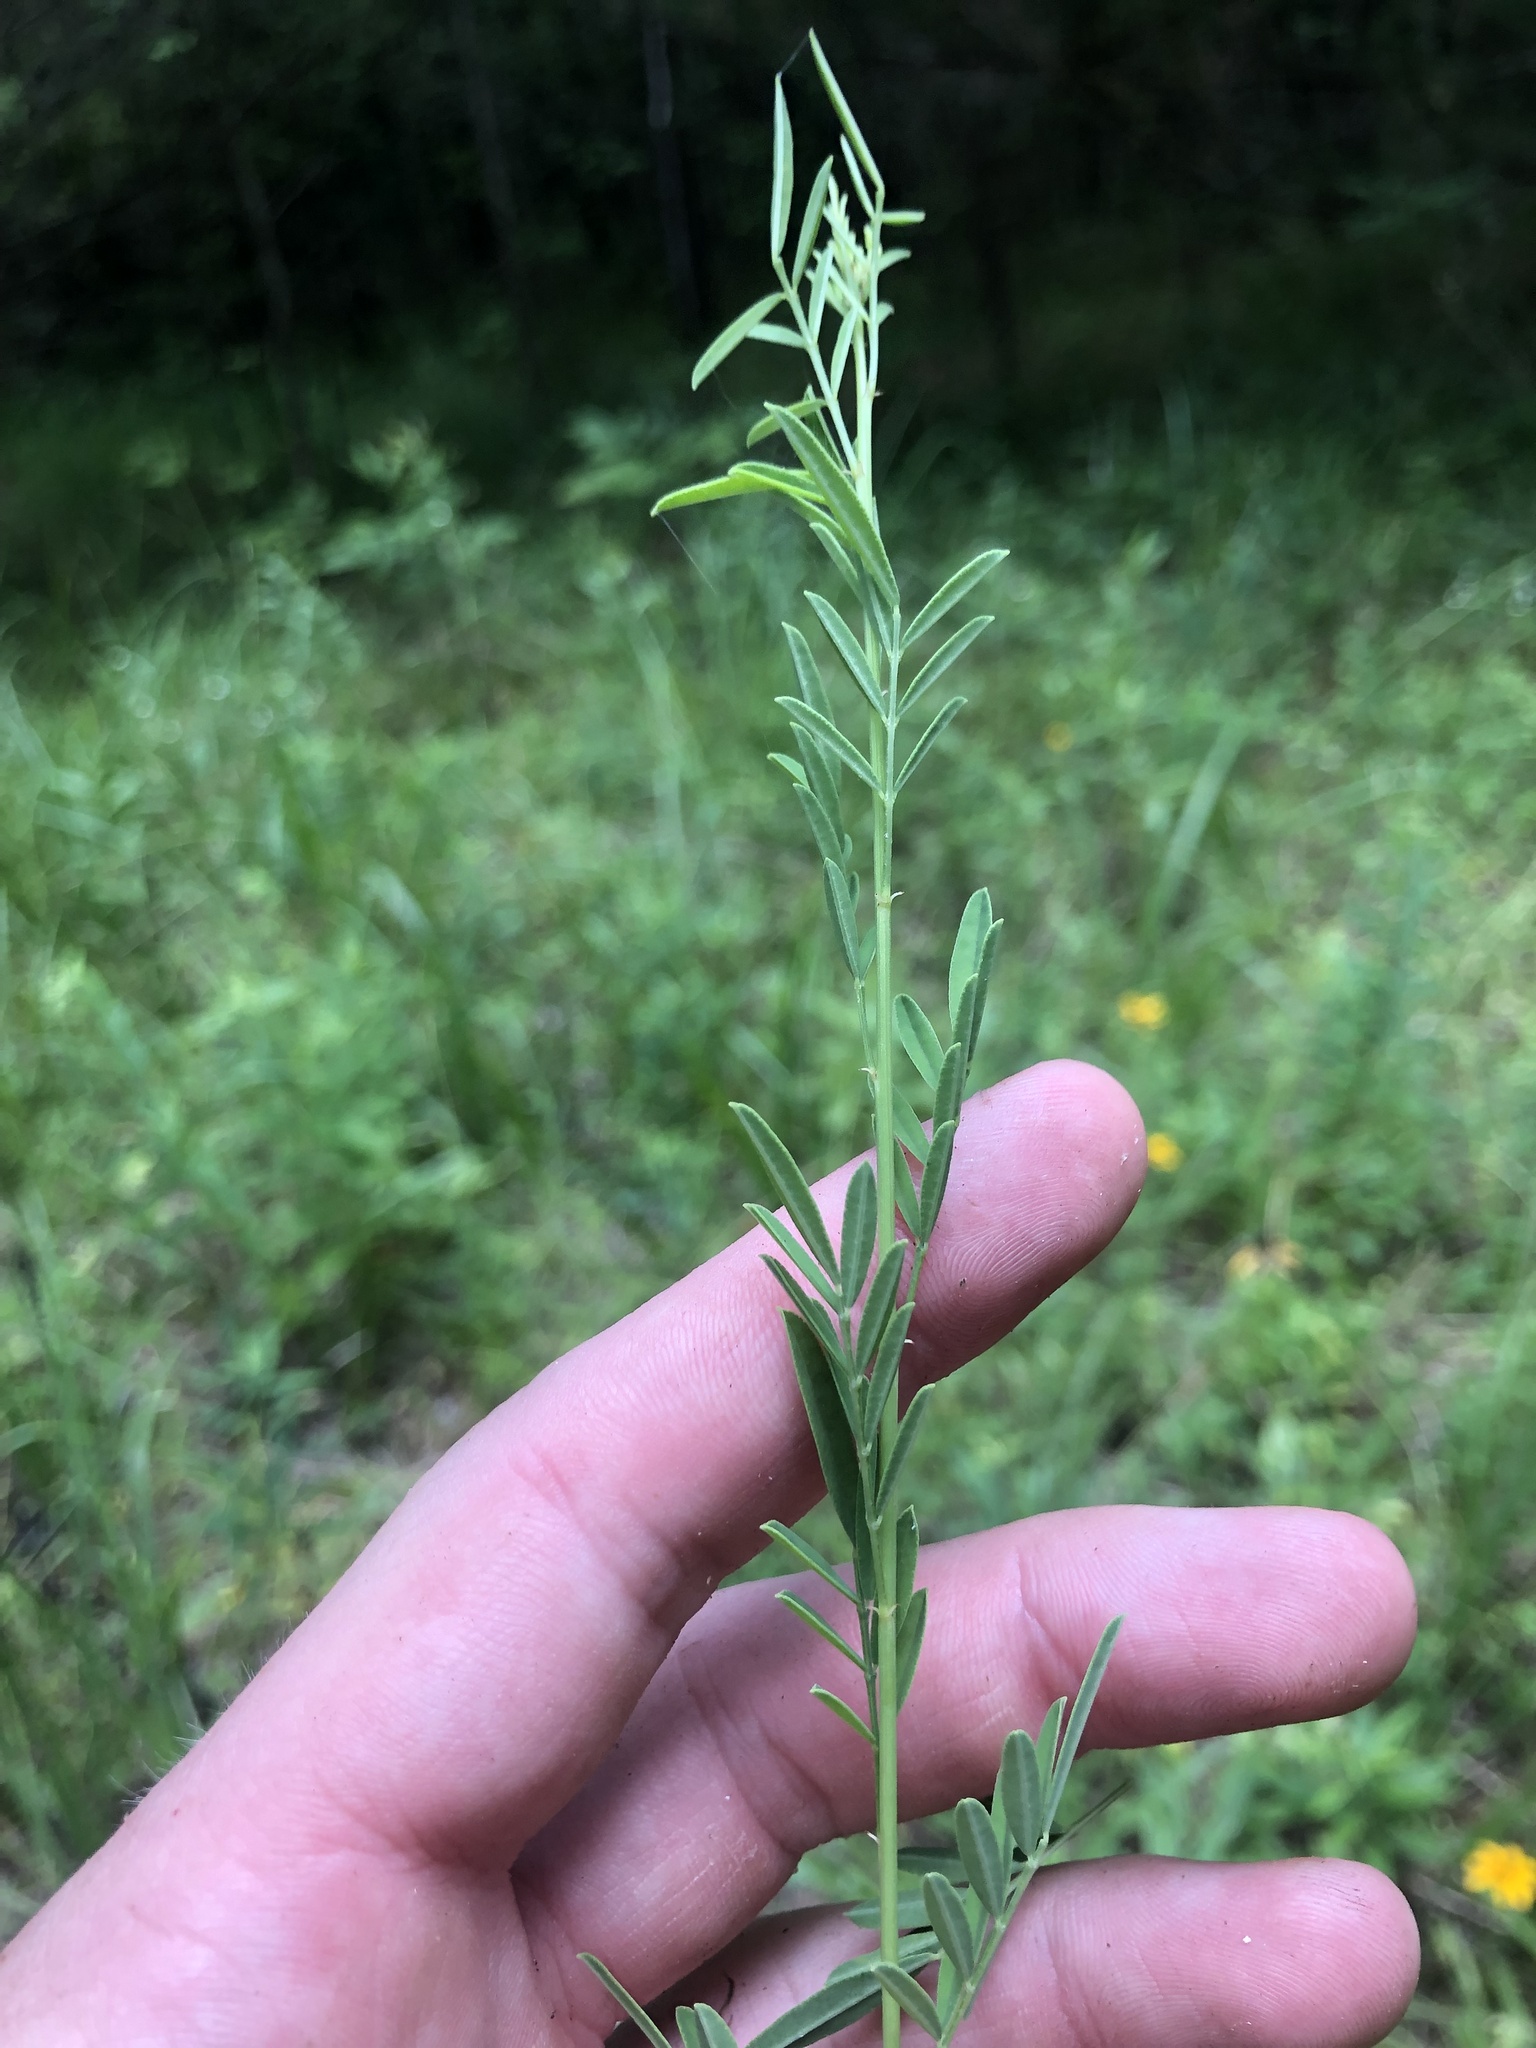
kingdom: Plantae
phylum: Tracheophyta
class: Magnoliopsida
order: Fabales
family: Fabaceae
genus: Dalea
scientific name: Dalea candida
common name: White prairie-clover
